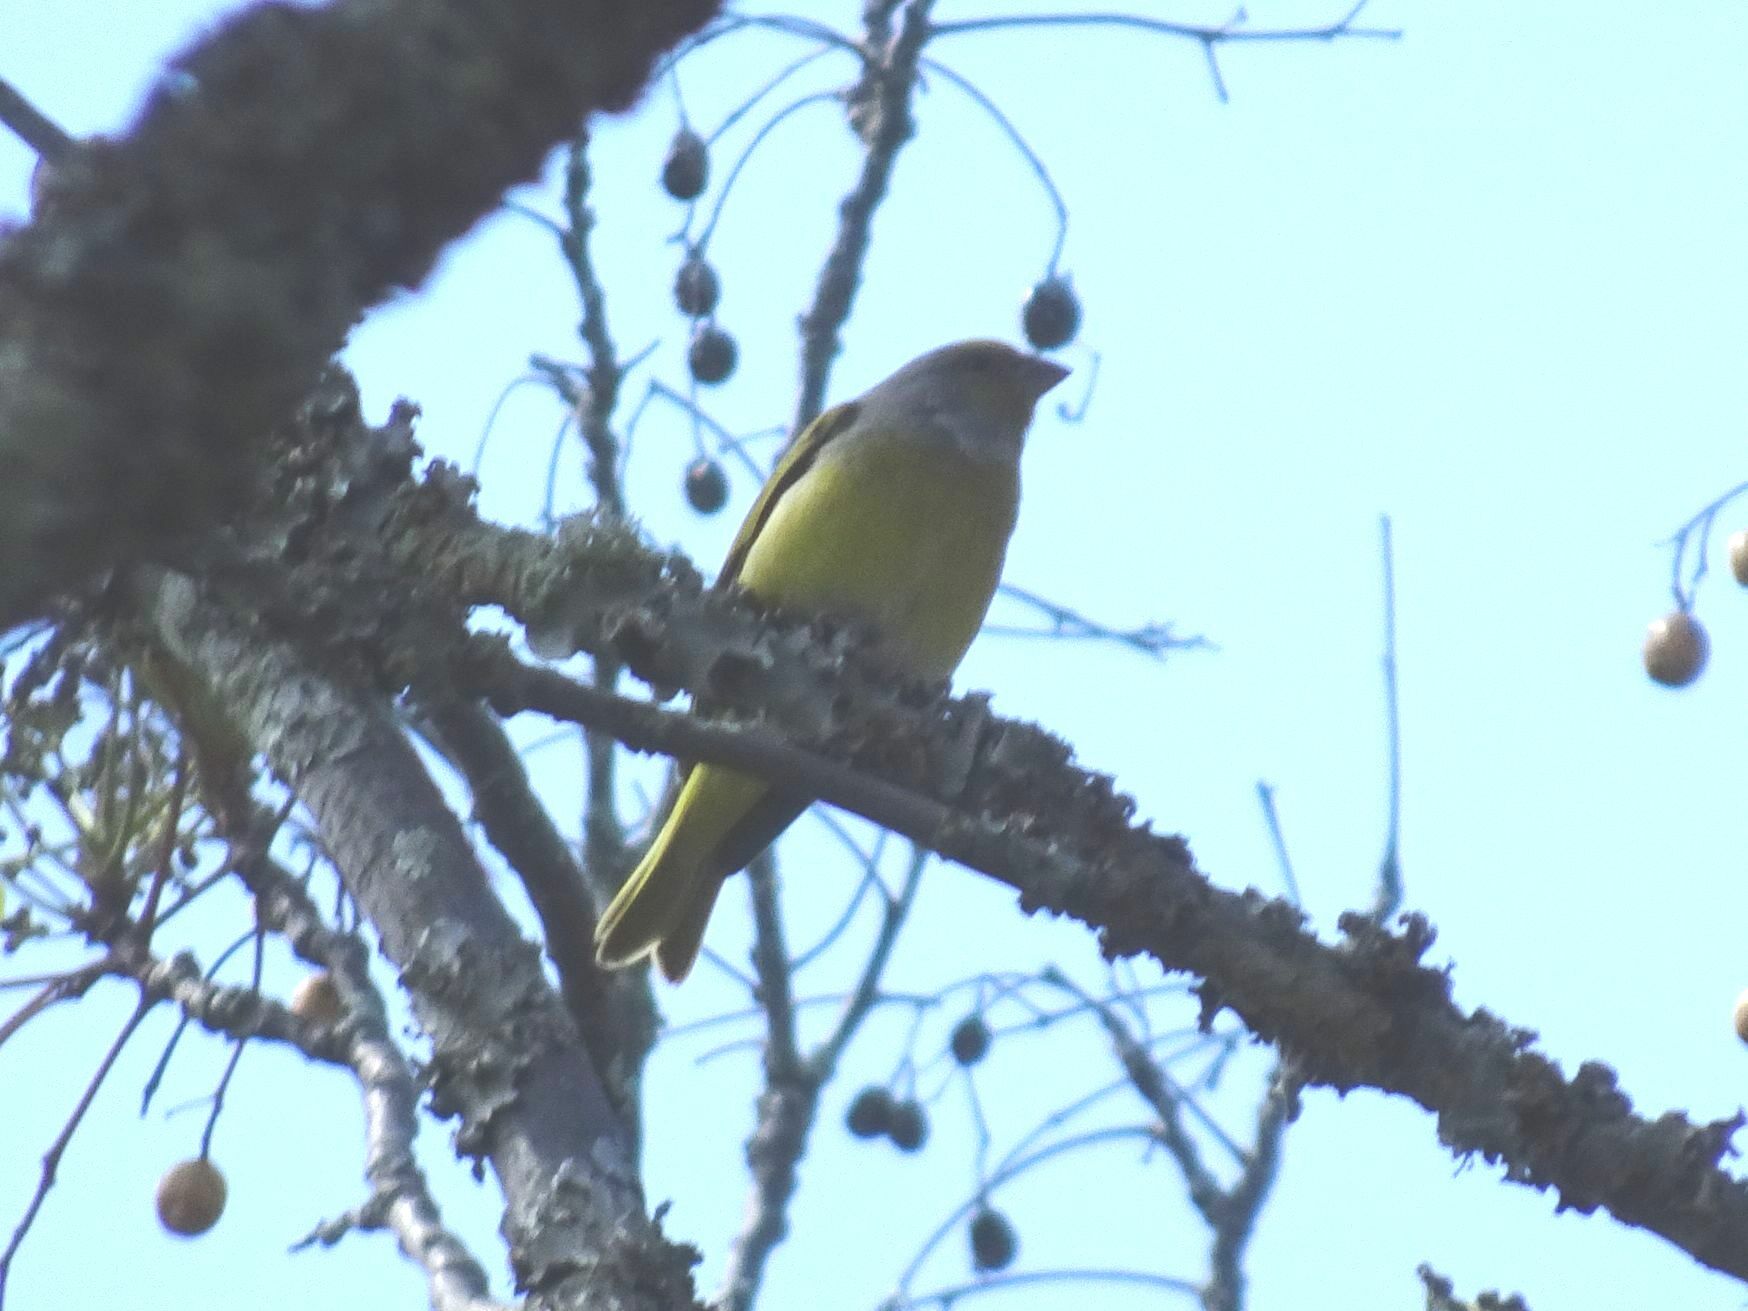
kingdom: Animalia
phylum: Chordata
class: Aves
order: Passeriformes
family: Fringillidae
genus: Serinus
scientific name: Serinus canicollis
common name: Cape canary
